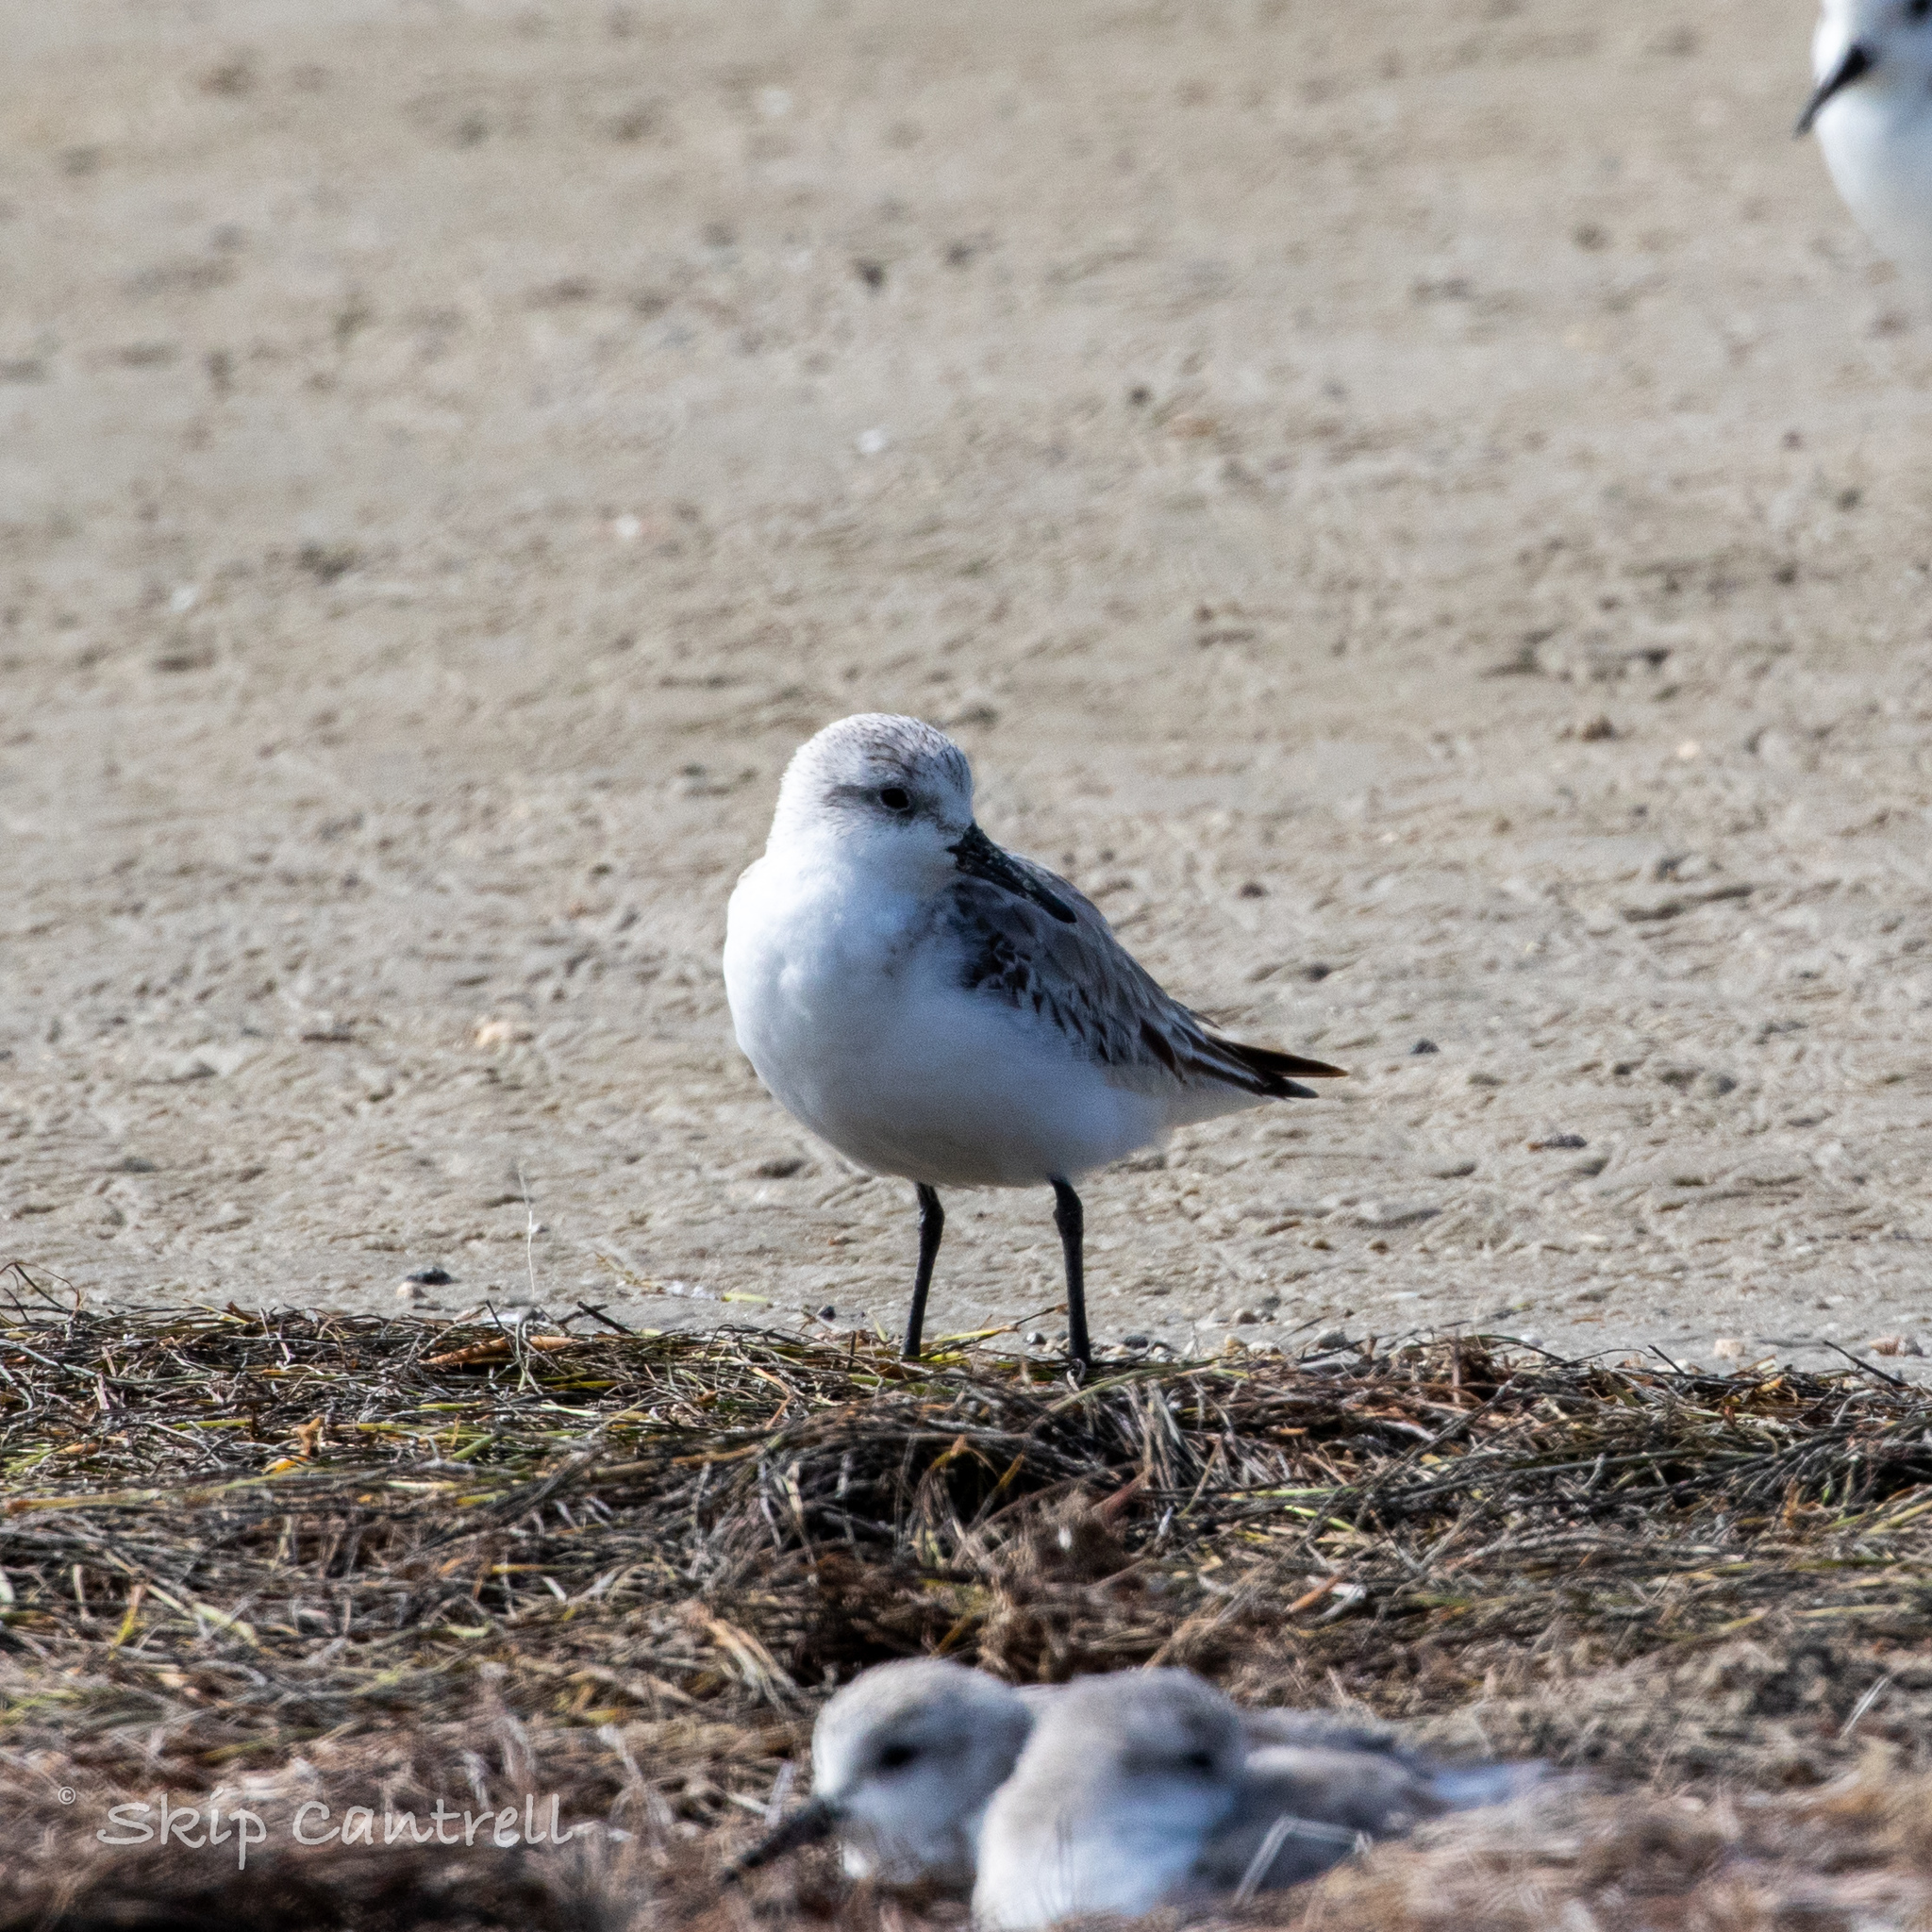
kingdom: Animalia
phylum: Chordata
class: Aves
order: Charadriiformes
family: Scolopacidae
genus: Calidris
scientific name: Calidris alba
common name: Sanderling
